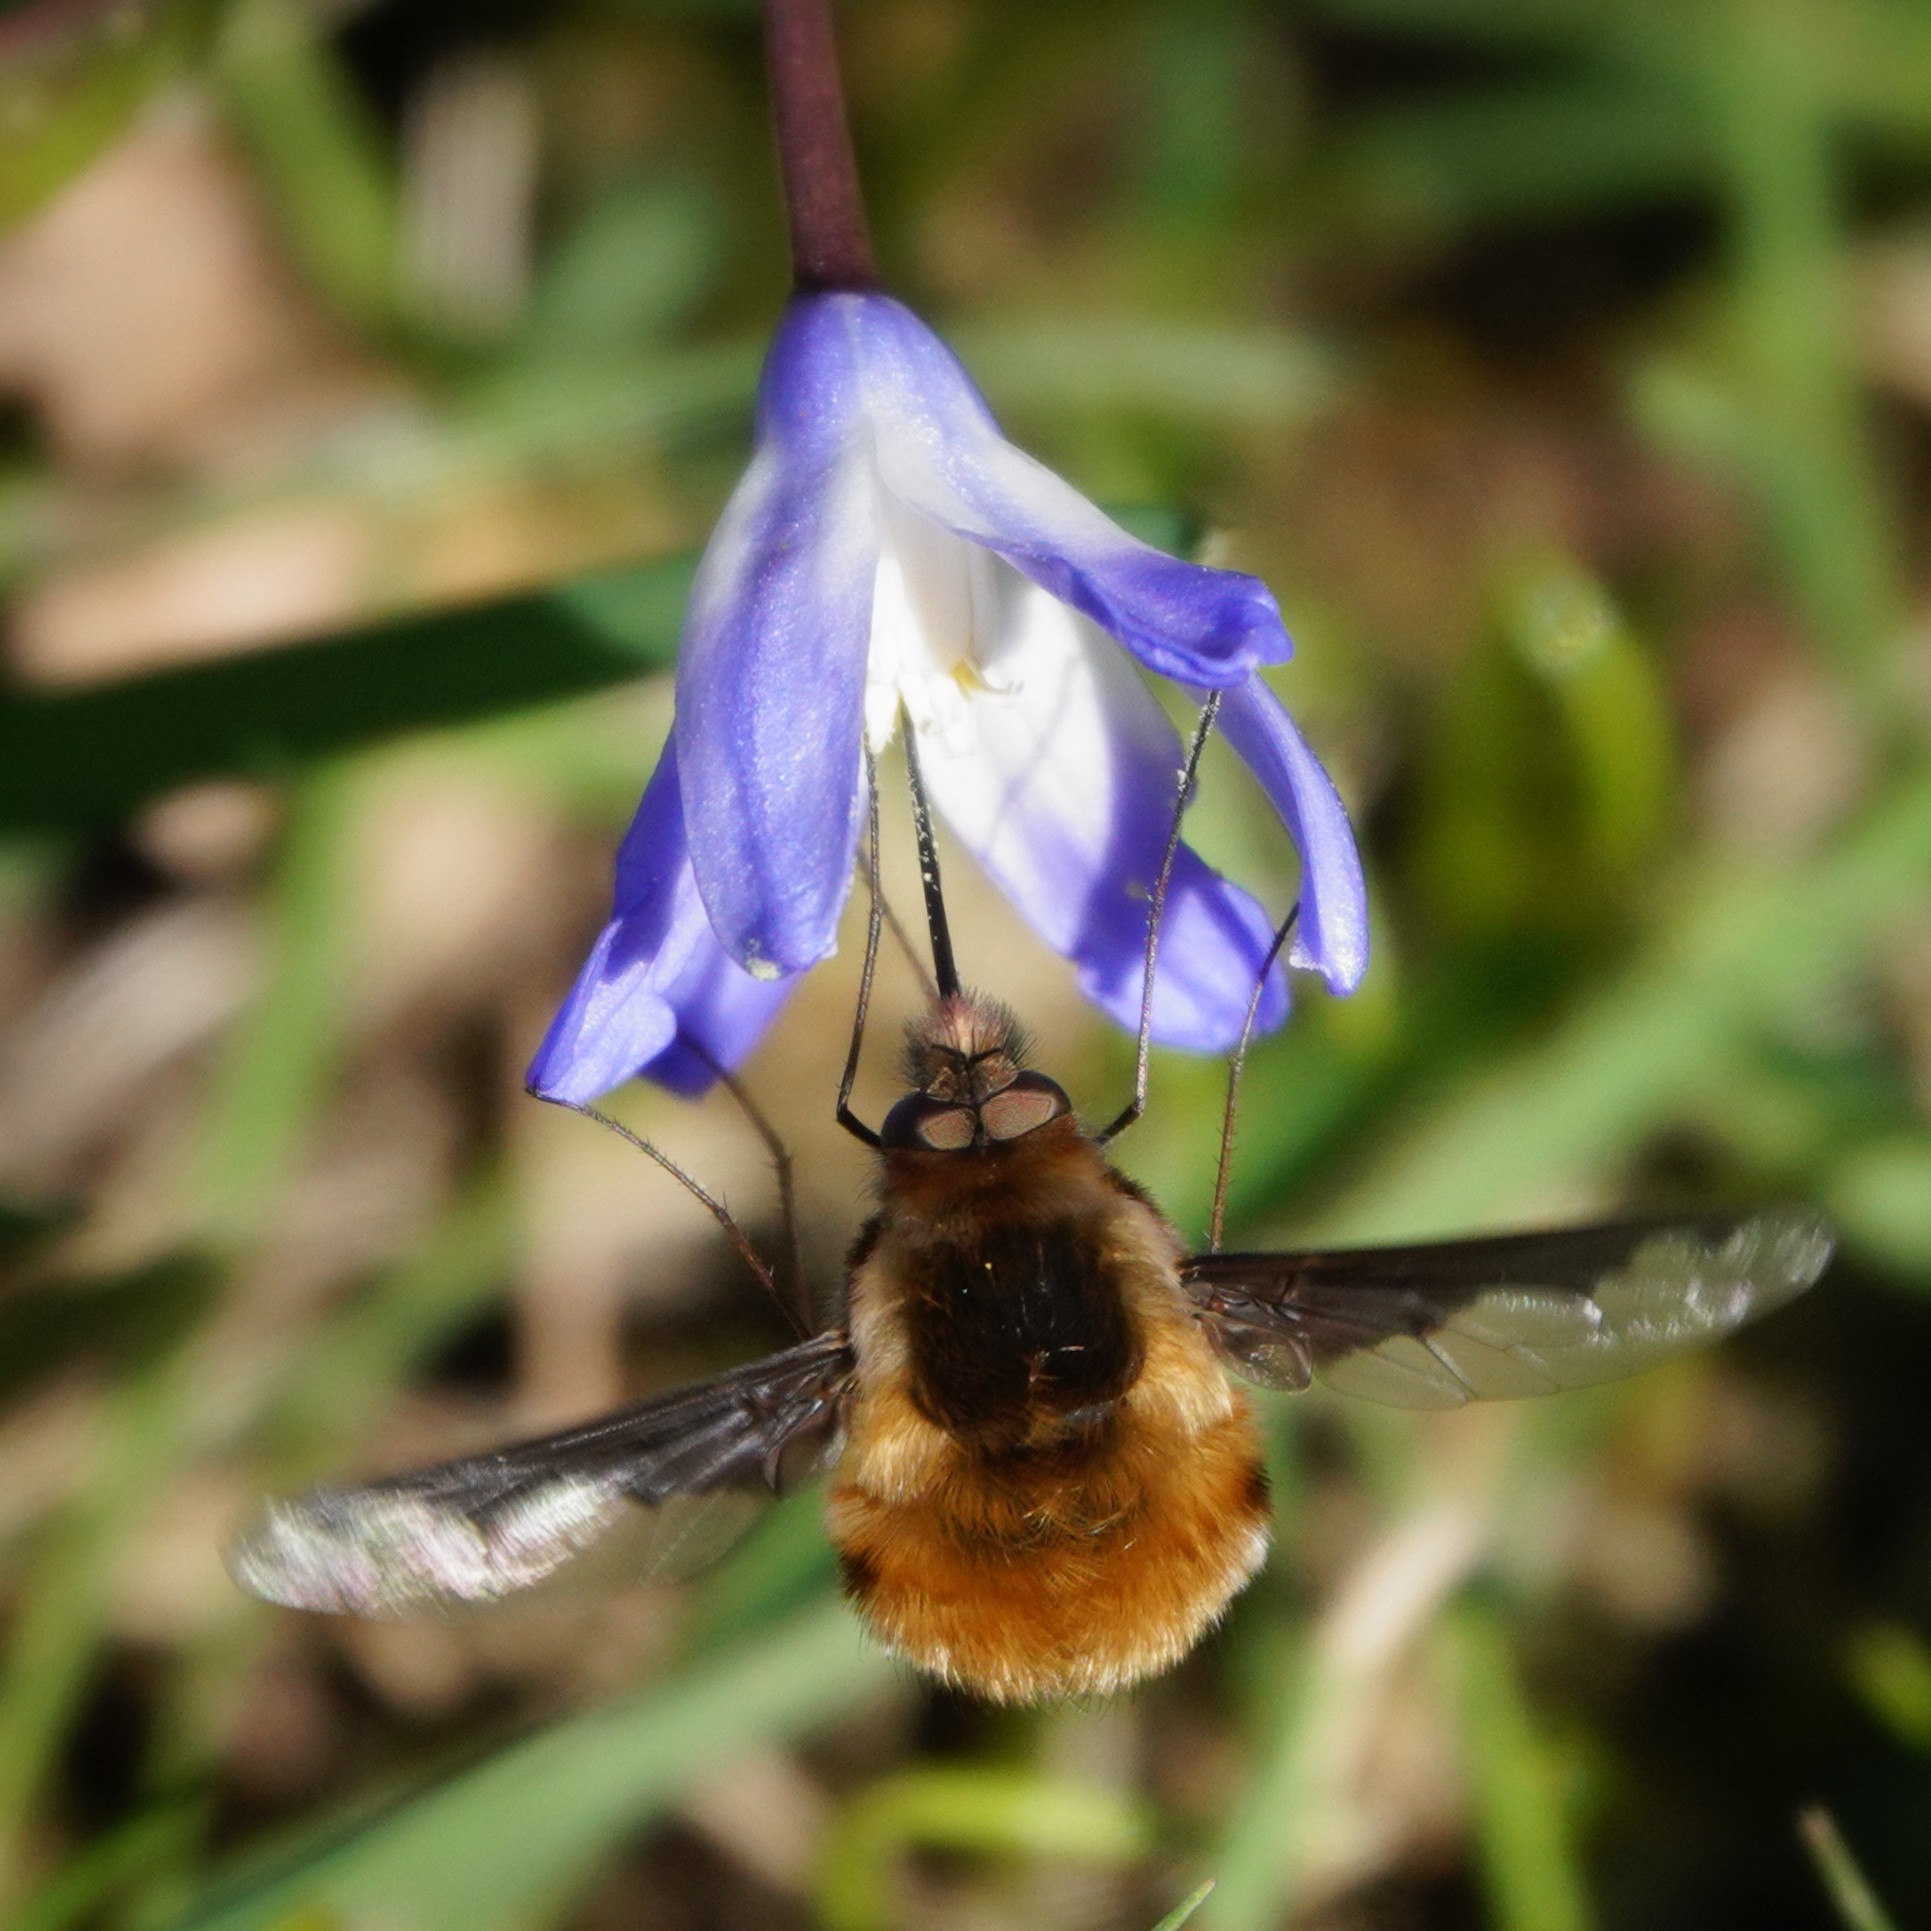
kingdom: Animalia
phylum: Arthropoda
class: Insecta
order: Diptera
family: Bombyliidae
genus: Bombylius
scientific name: Bombylius major
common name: Bee fly
